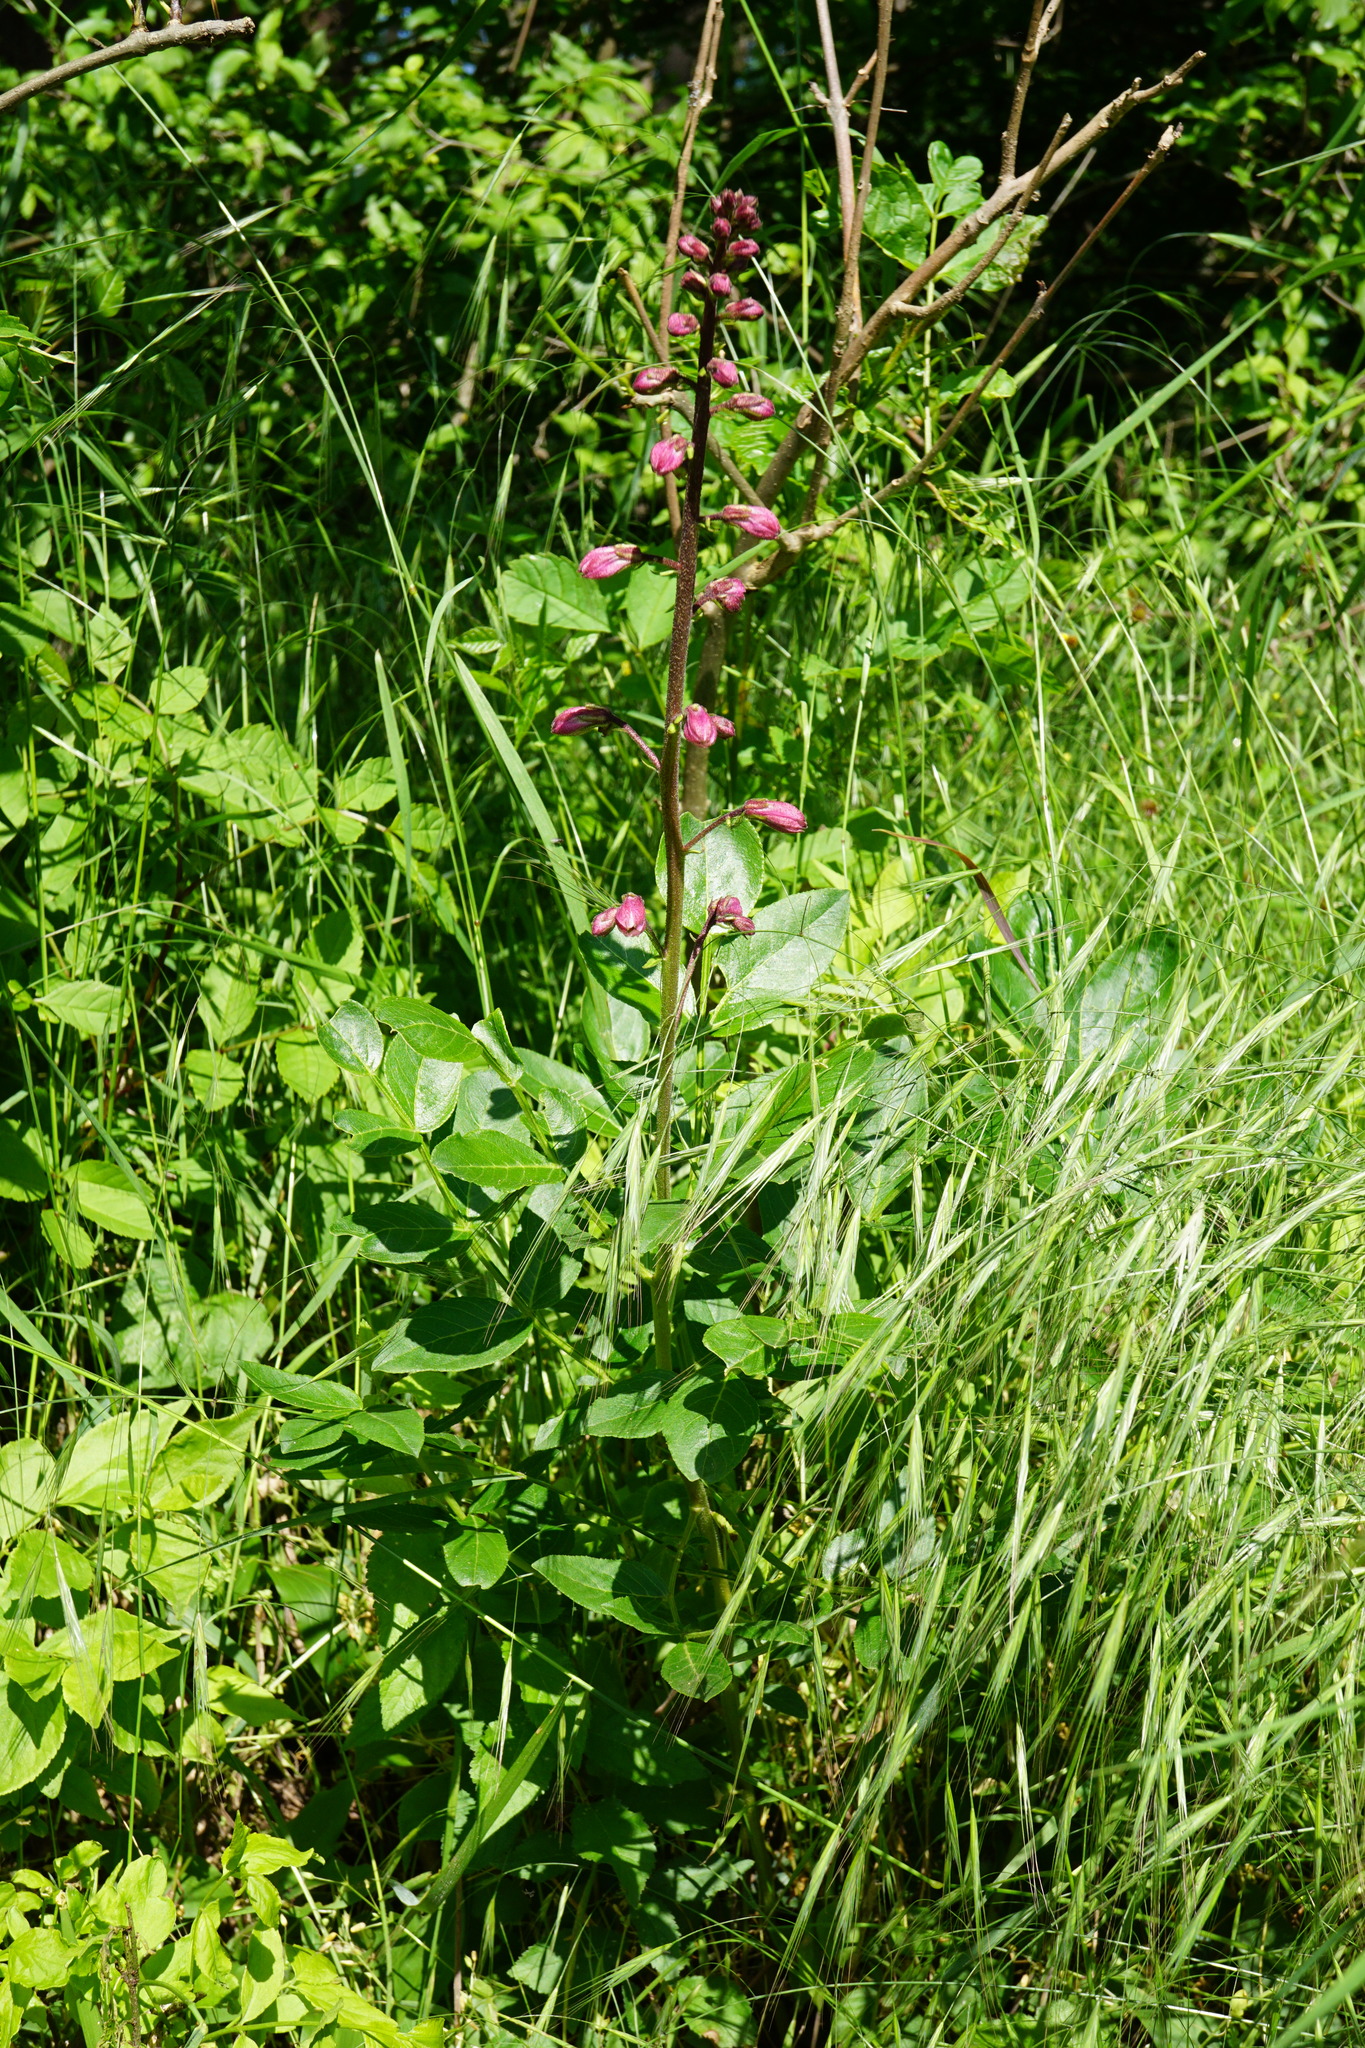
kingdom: Plantae
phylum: Tracheophyta
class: Magnoliopsida
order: Sapindales
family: Rutaceae
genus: Dictamnus
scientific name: Dictamnus albus
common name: Gasplant
